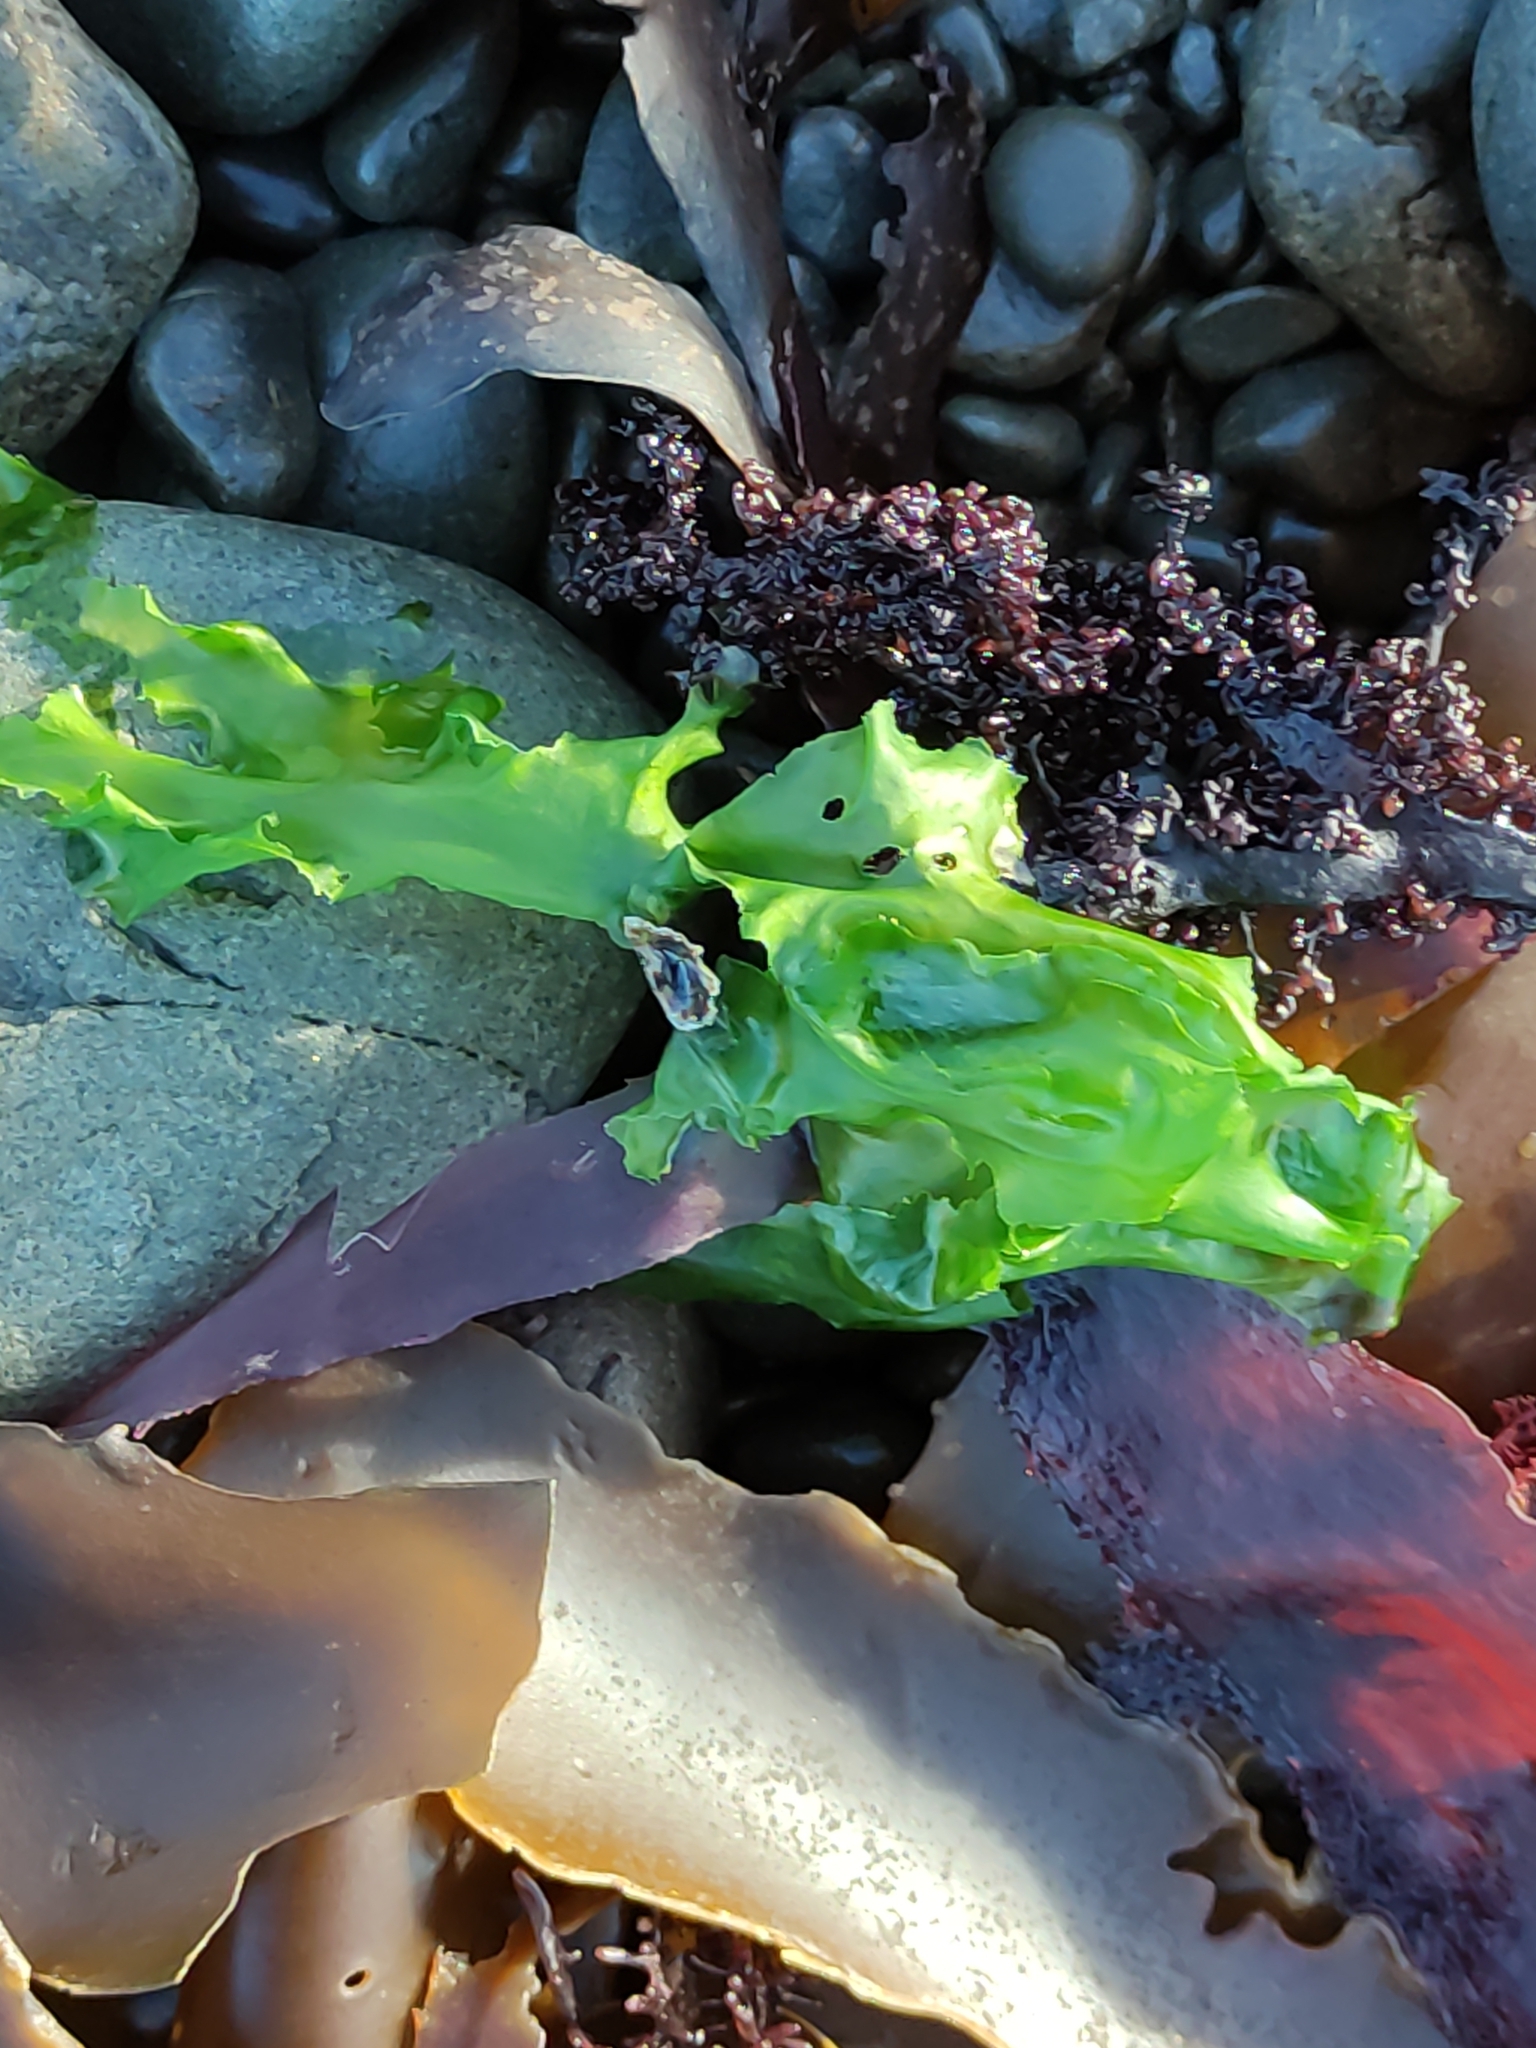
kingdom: Plantae
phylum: Chlorophyta
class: Ulvophyceae
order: Ulvales
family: Ulvaceae
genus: Ulva
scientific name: Ulva
